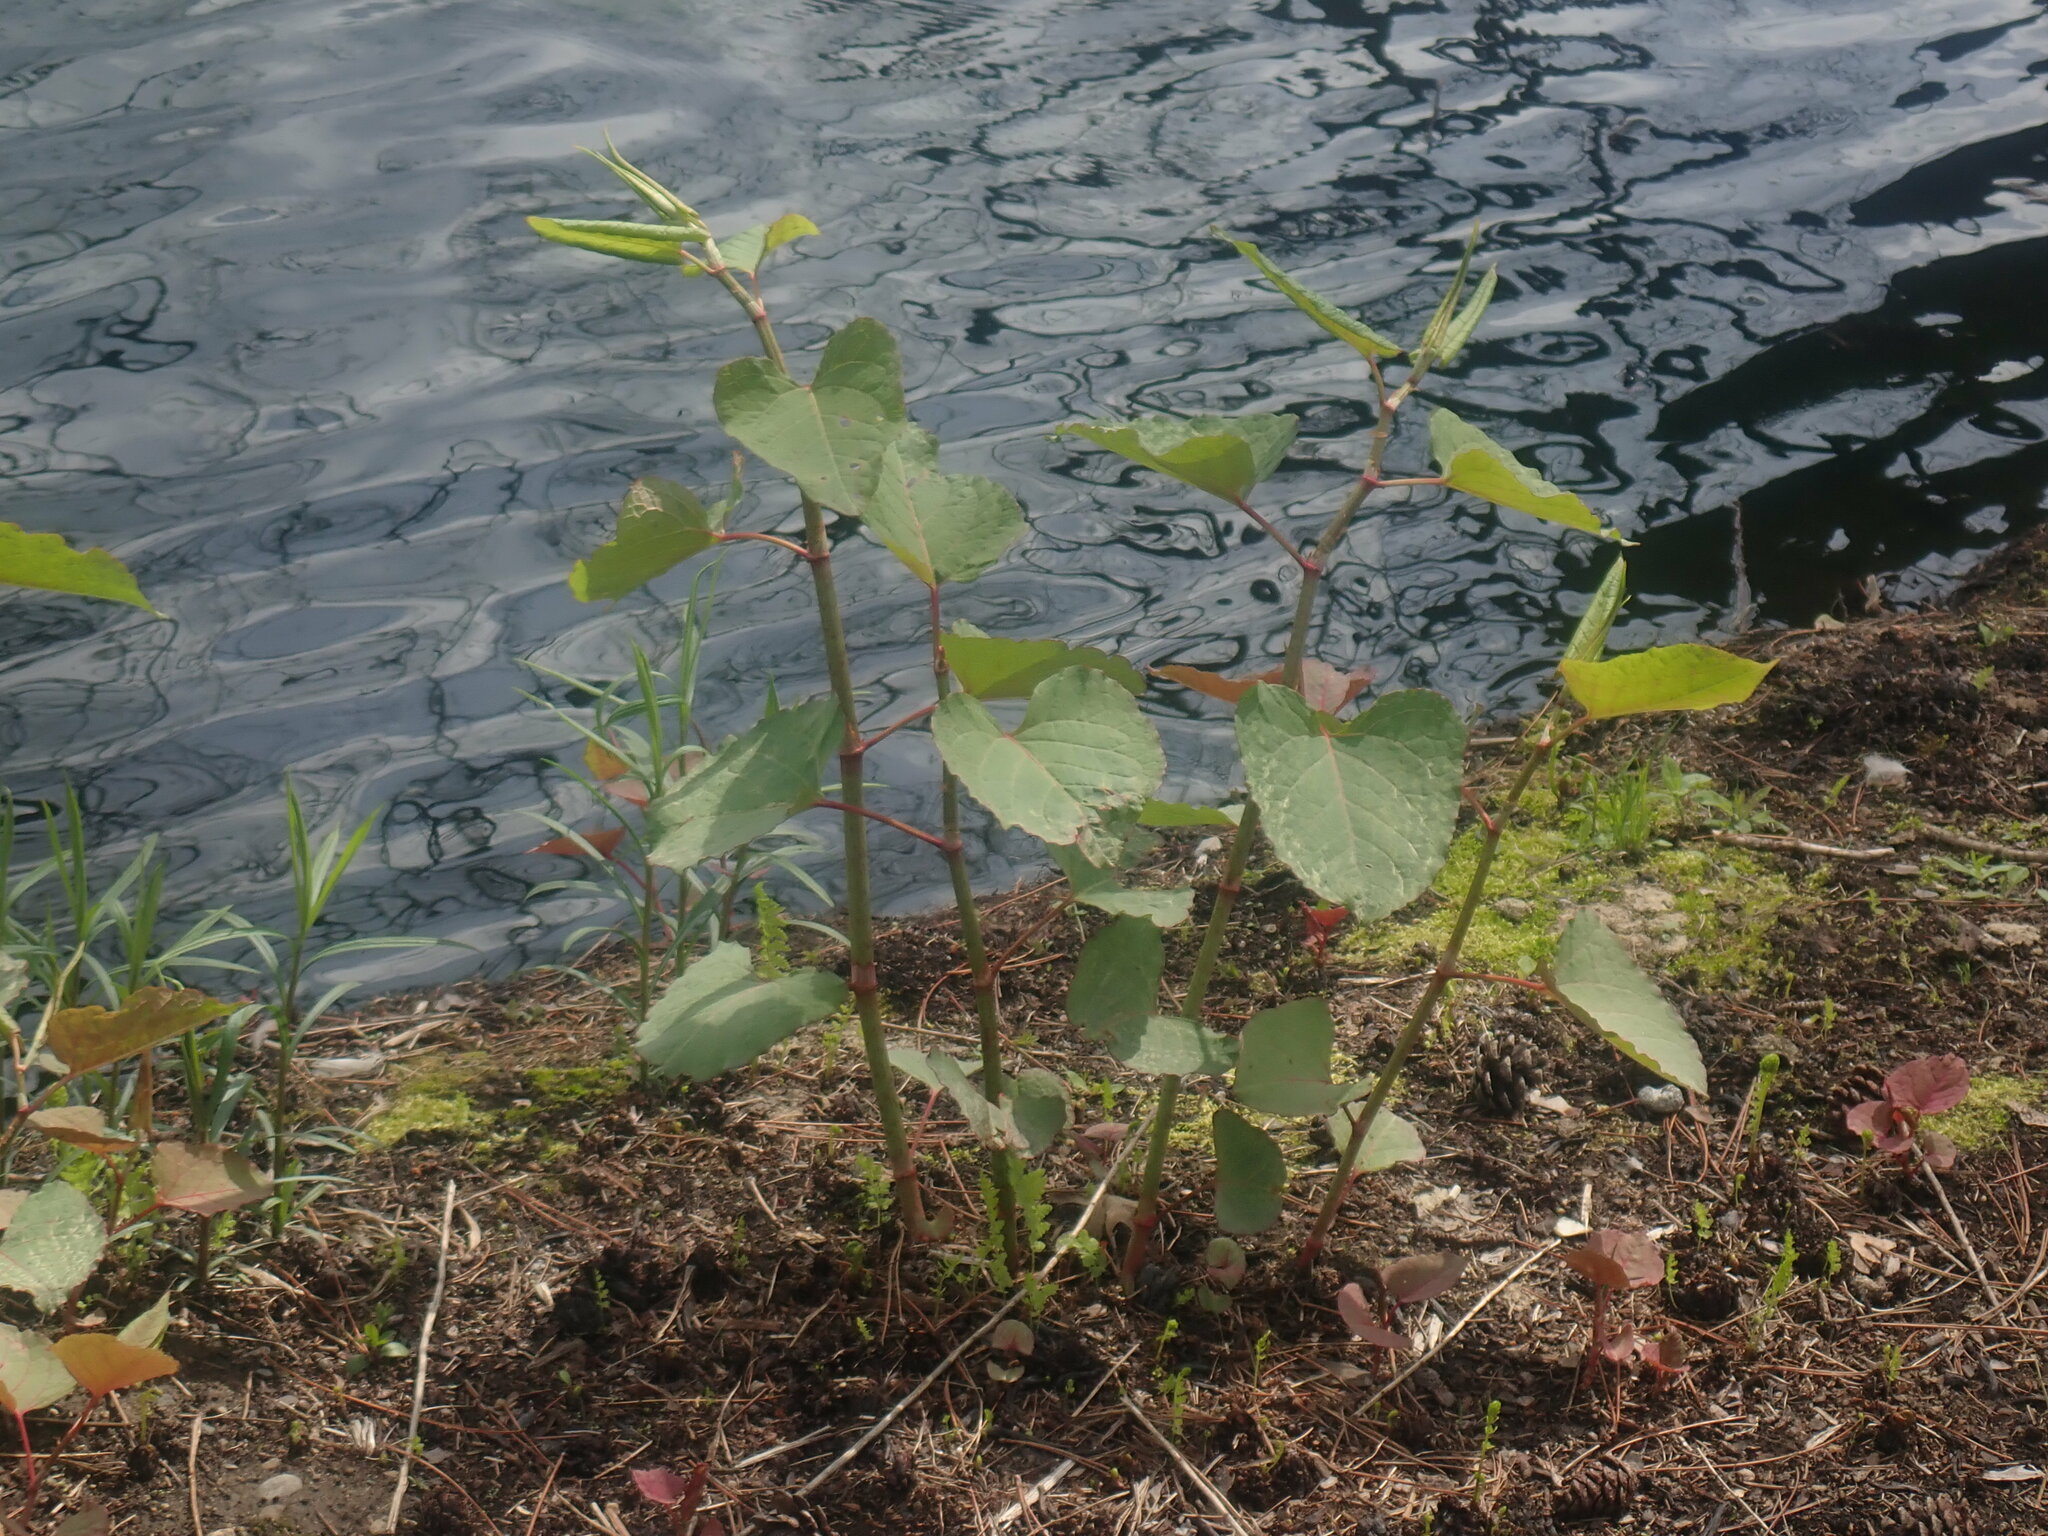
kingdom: Plantae
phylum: Tracheophyta
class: Magnoliopsida
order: Caryophyllales
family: Polygonaceae
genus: Reynoutria
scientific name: Reynoutria
